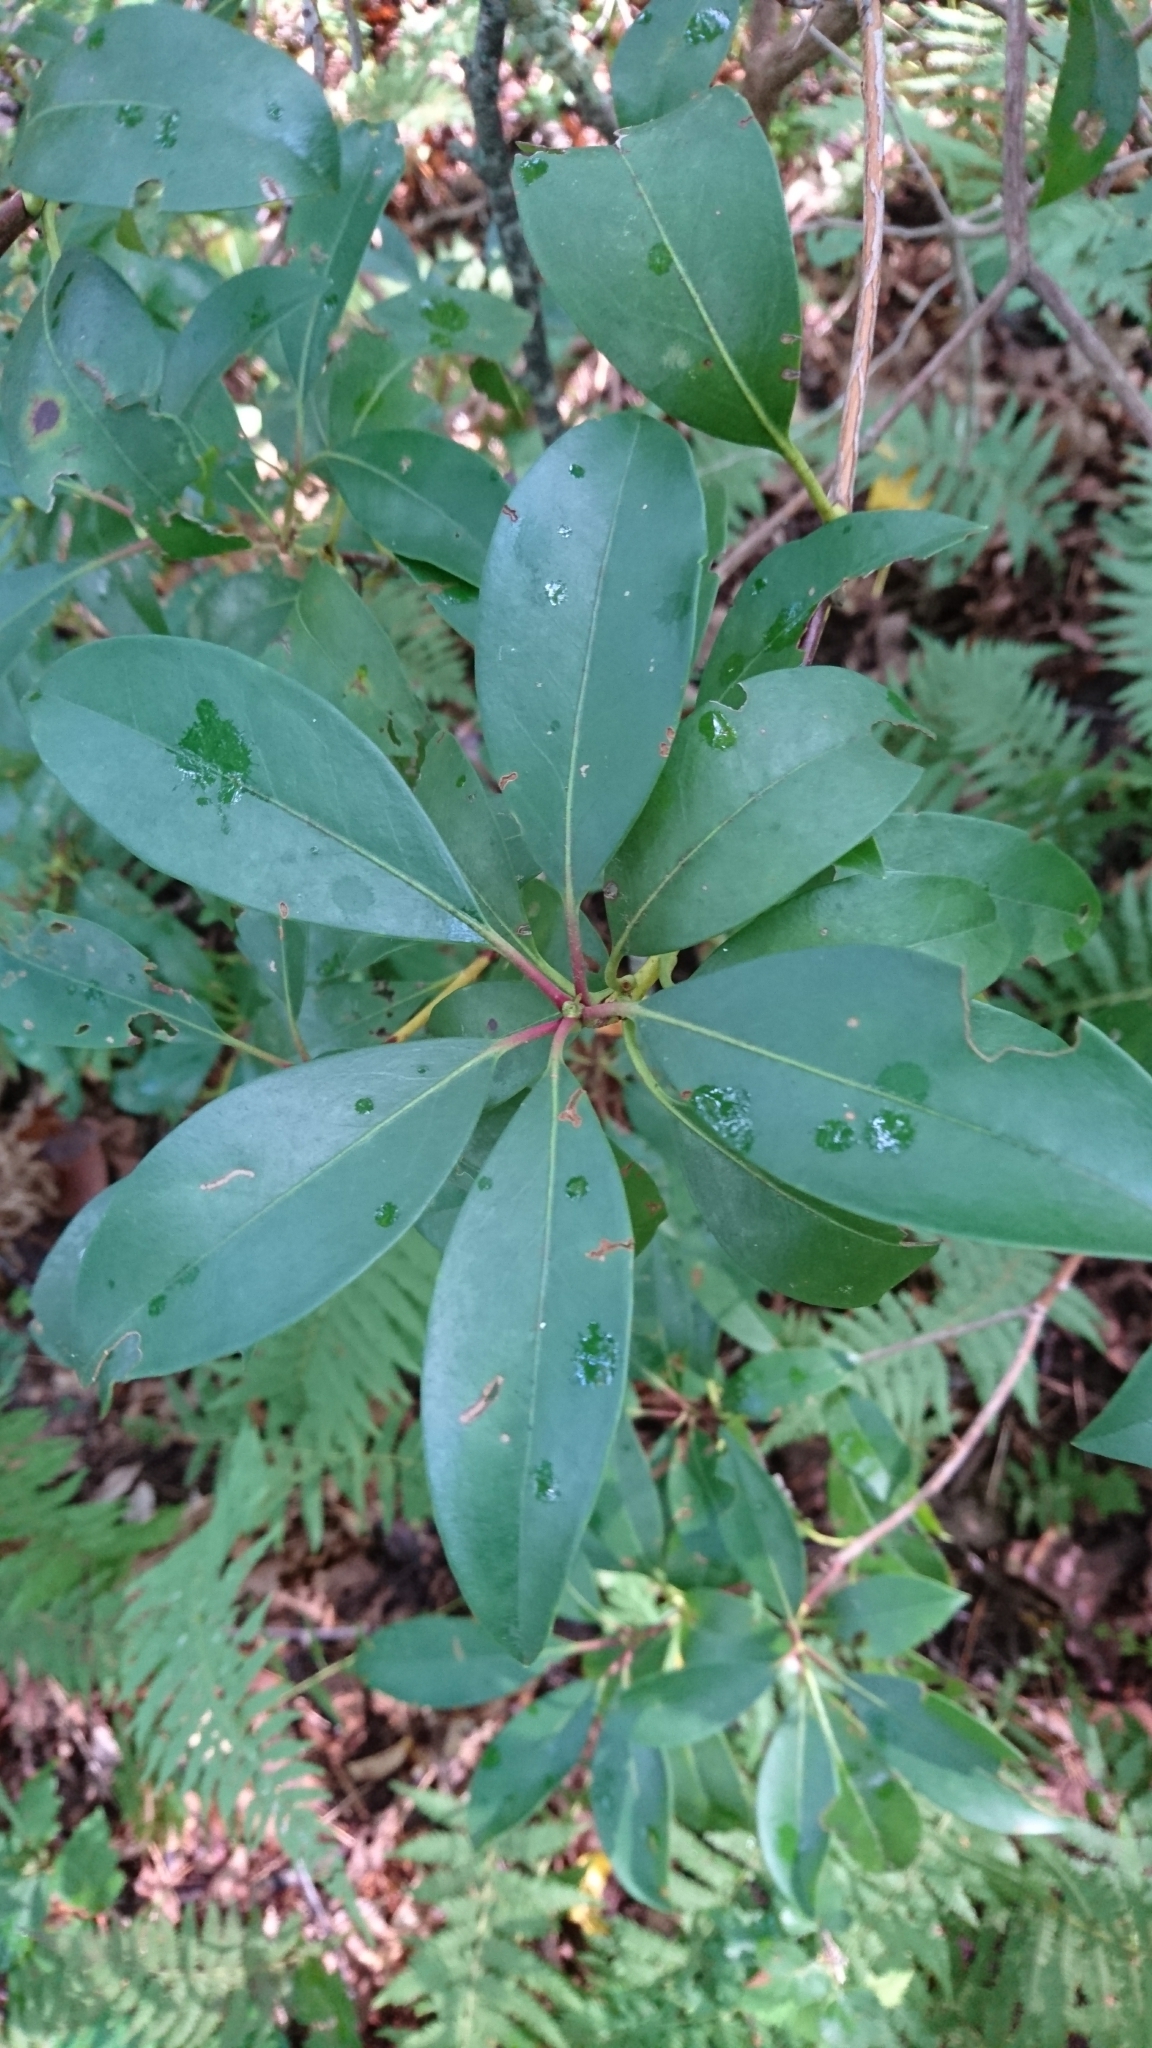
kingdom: Plantae
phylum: Tracheophyta
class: Magnoliopsida
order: Ericales
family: Ericaceae
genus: Kalmia
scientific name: Kalmia latifolia
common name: Mountain-laurel
